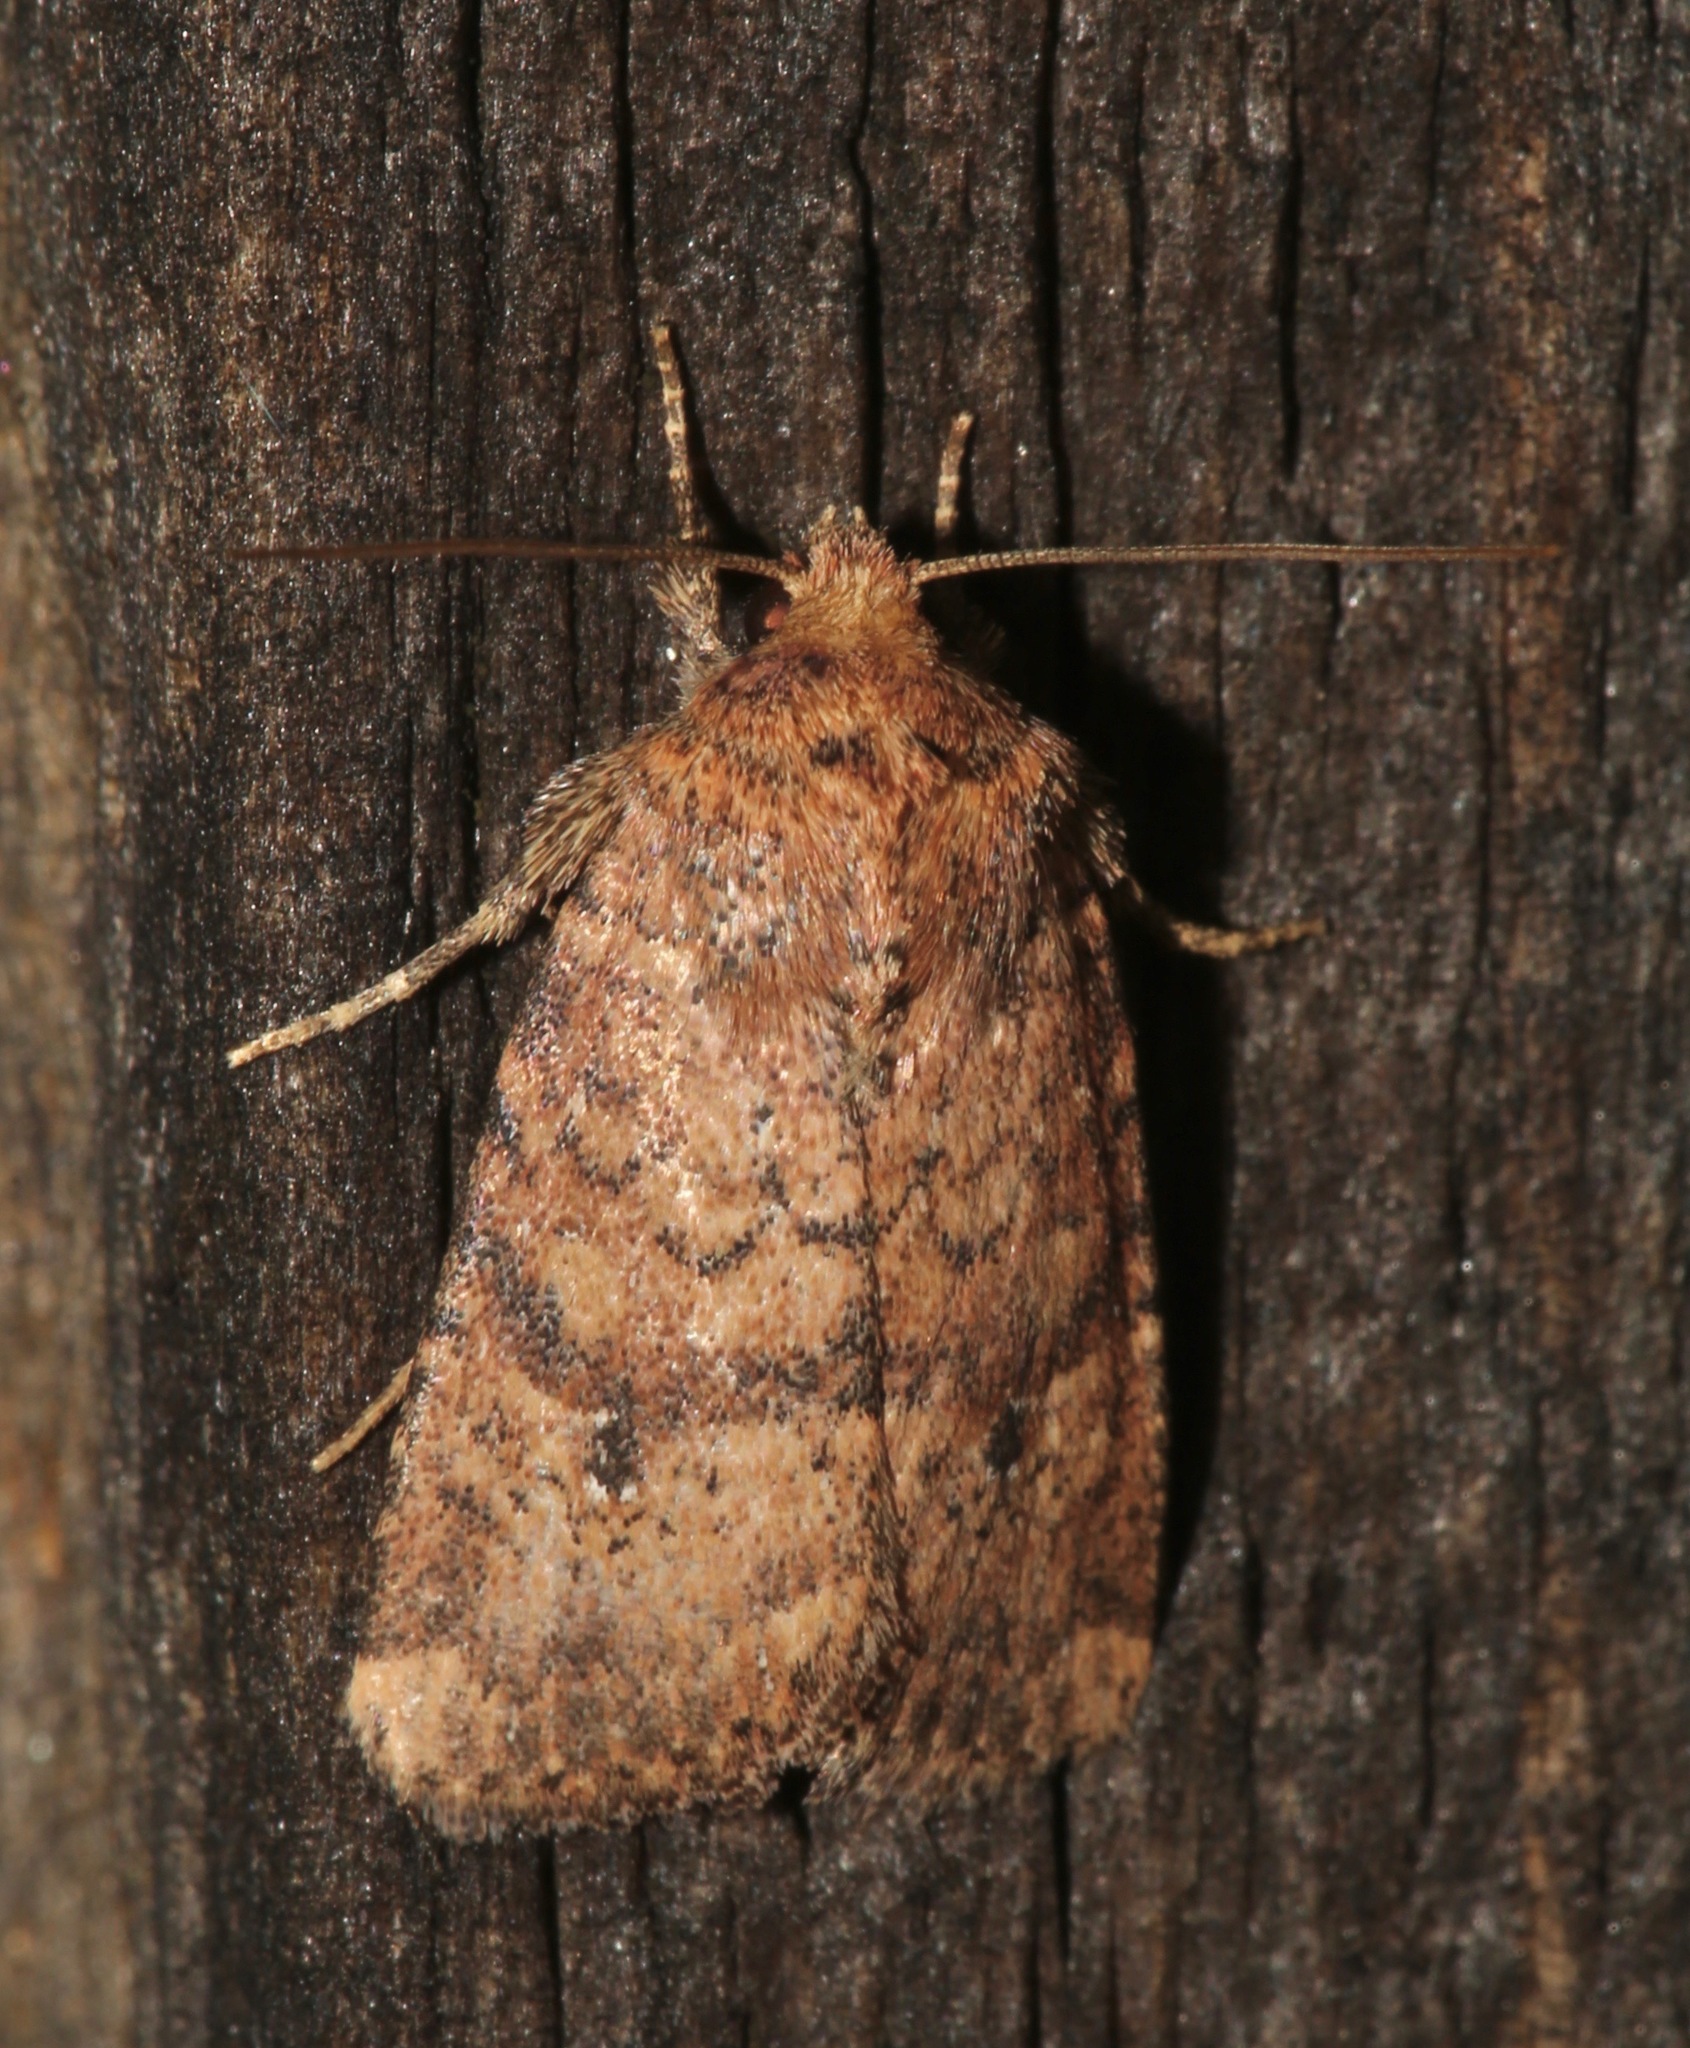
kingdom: Animalia
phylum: Arthropoda
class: Insecta
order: Lepidoptera
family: Noctuidae
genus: Homorthodes
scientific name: Homorthodes furfurata
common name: Northern scurfy quaker
